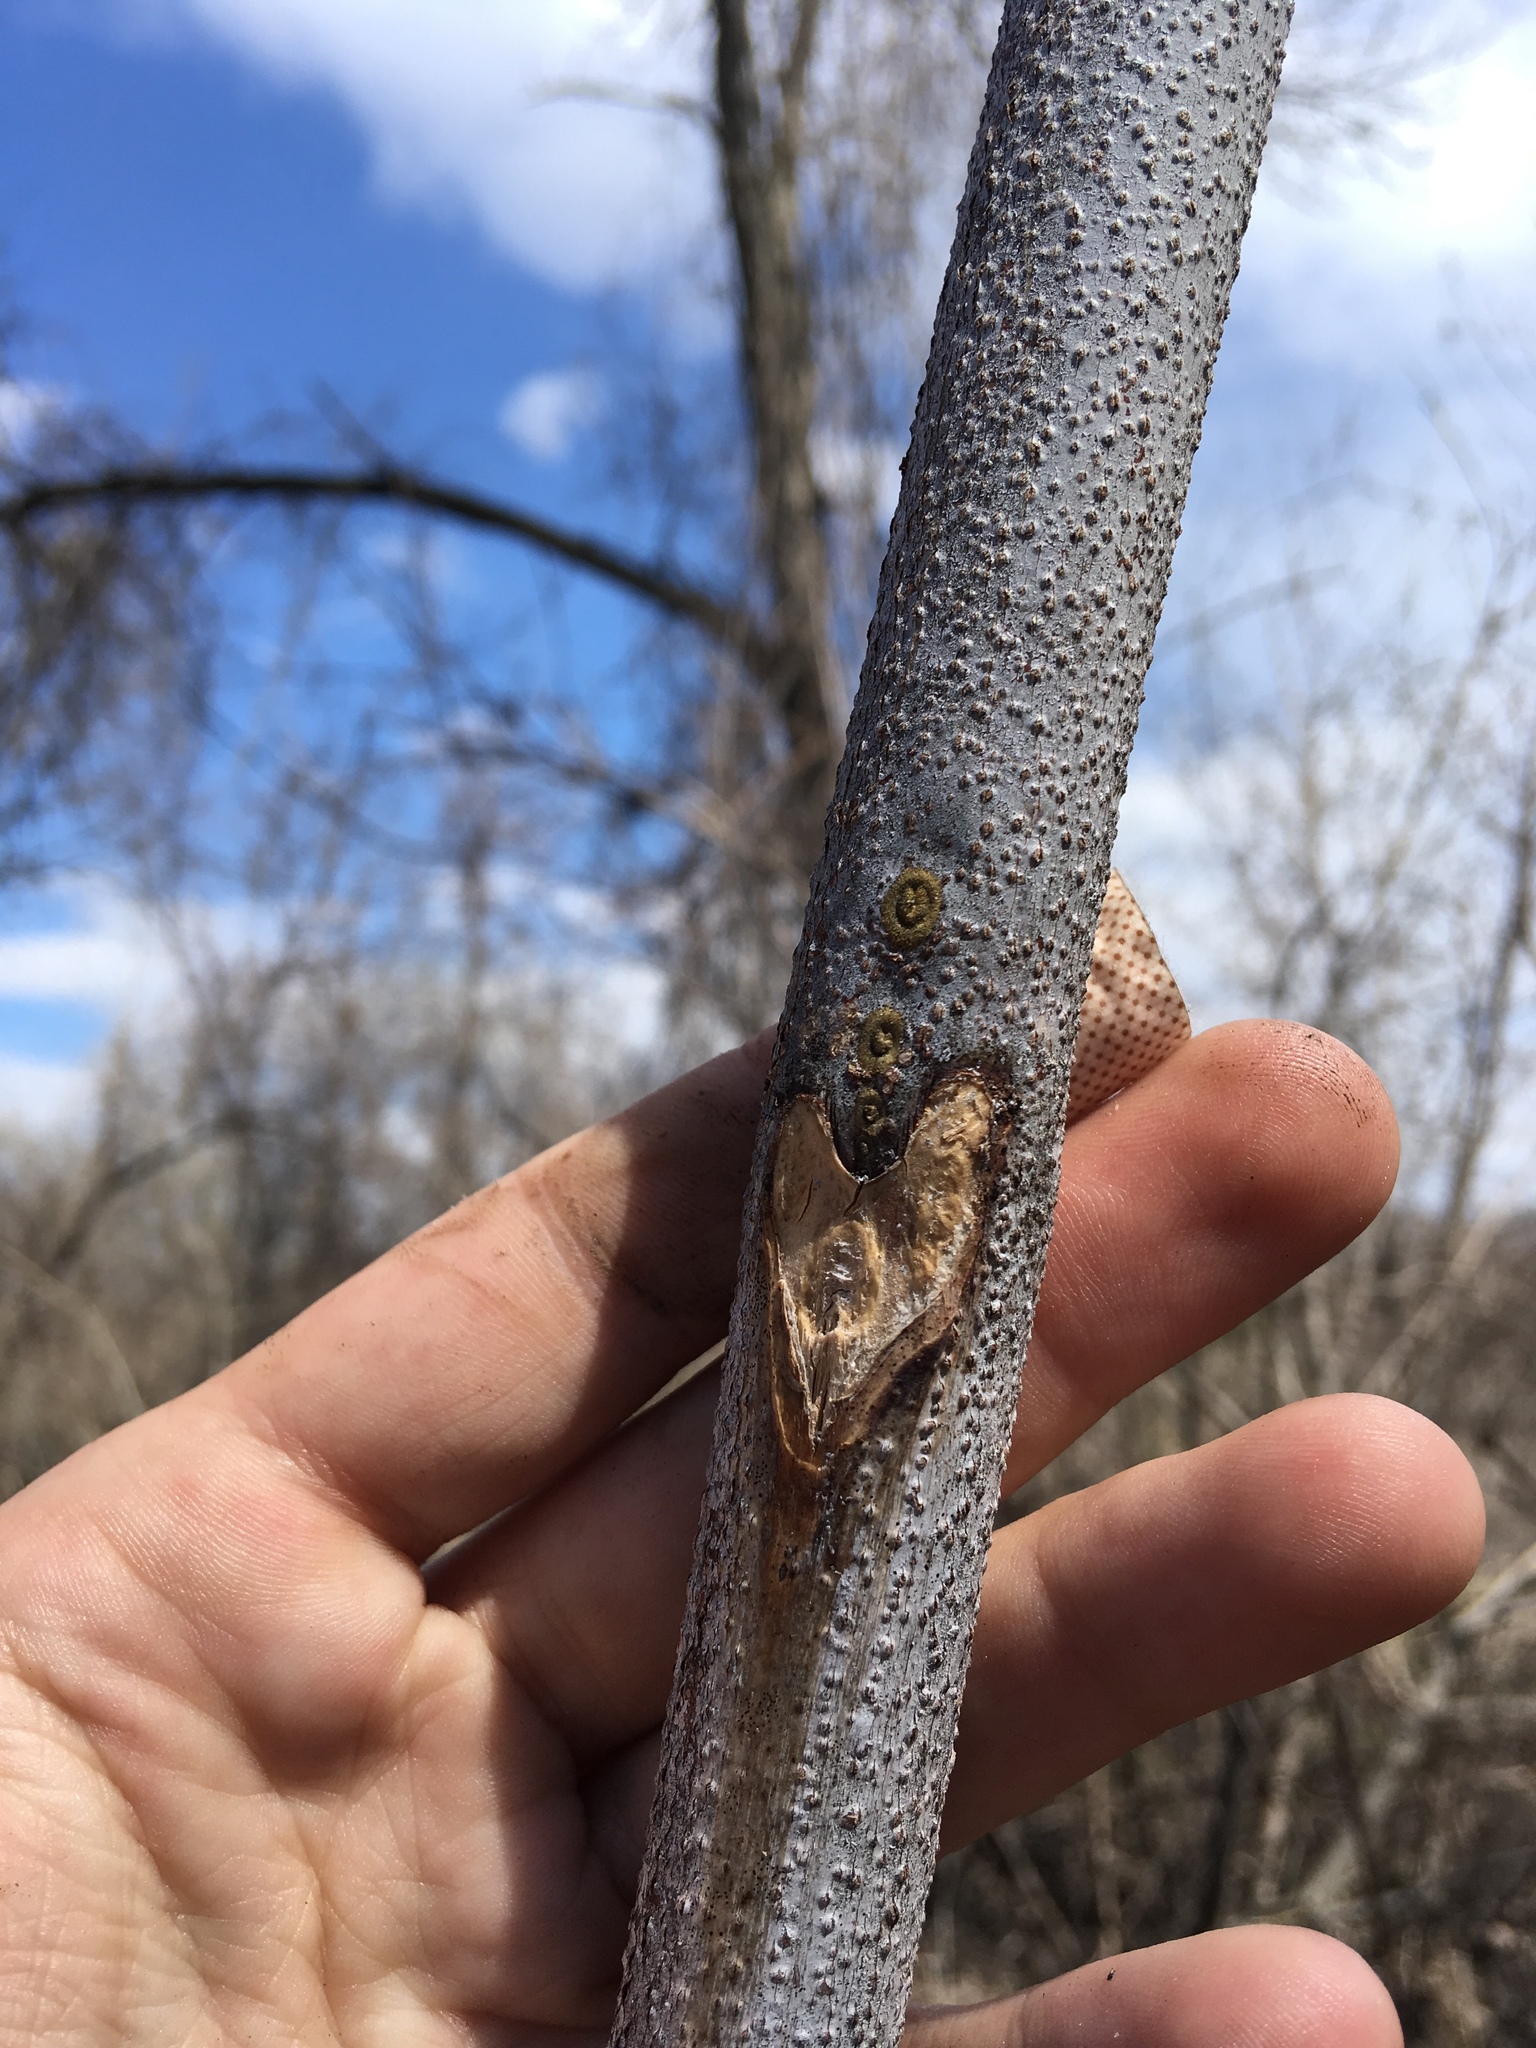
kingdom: Plantae
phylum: Tracheophyta
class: Magnoliopsida
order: Fabales
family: Fabaceae
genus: Gymnocladus
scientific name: Gymnocladus dioicus
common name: Kentucky coffee-tree
